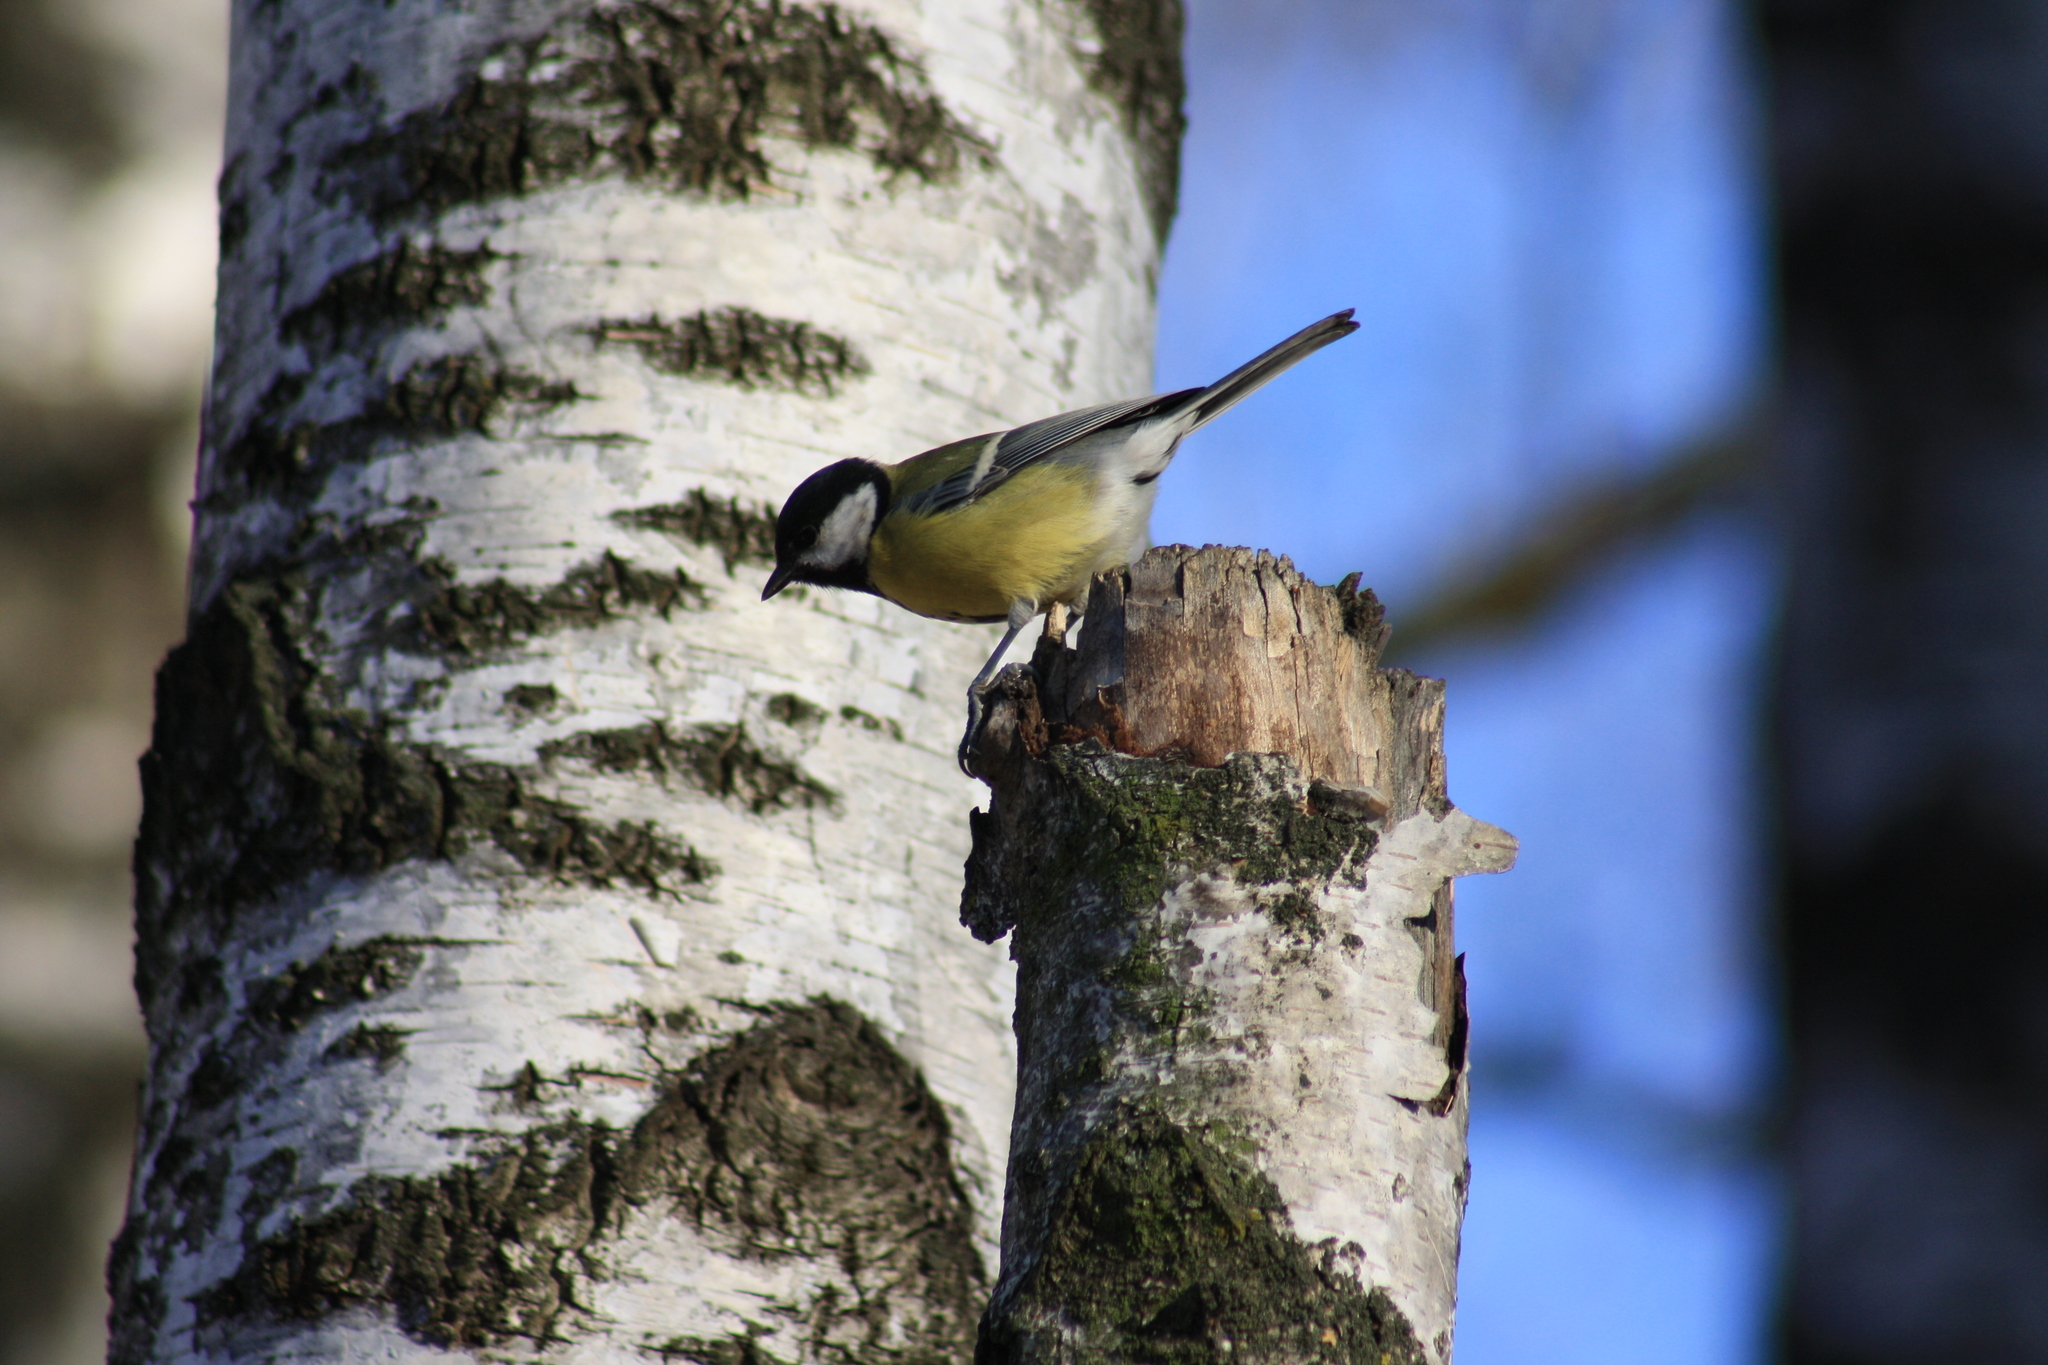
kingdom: Animalia
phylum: Chordata
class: Aves
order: Passeriformes
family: Paridae
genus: Parus
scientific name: Parus major
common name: Great tit
